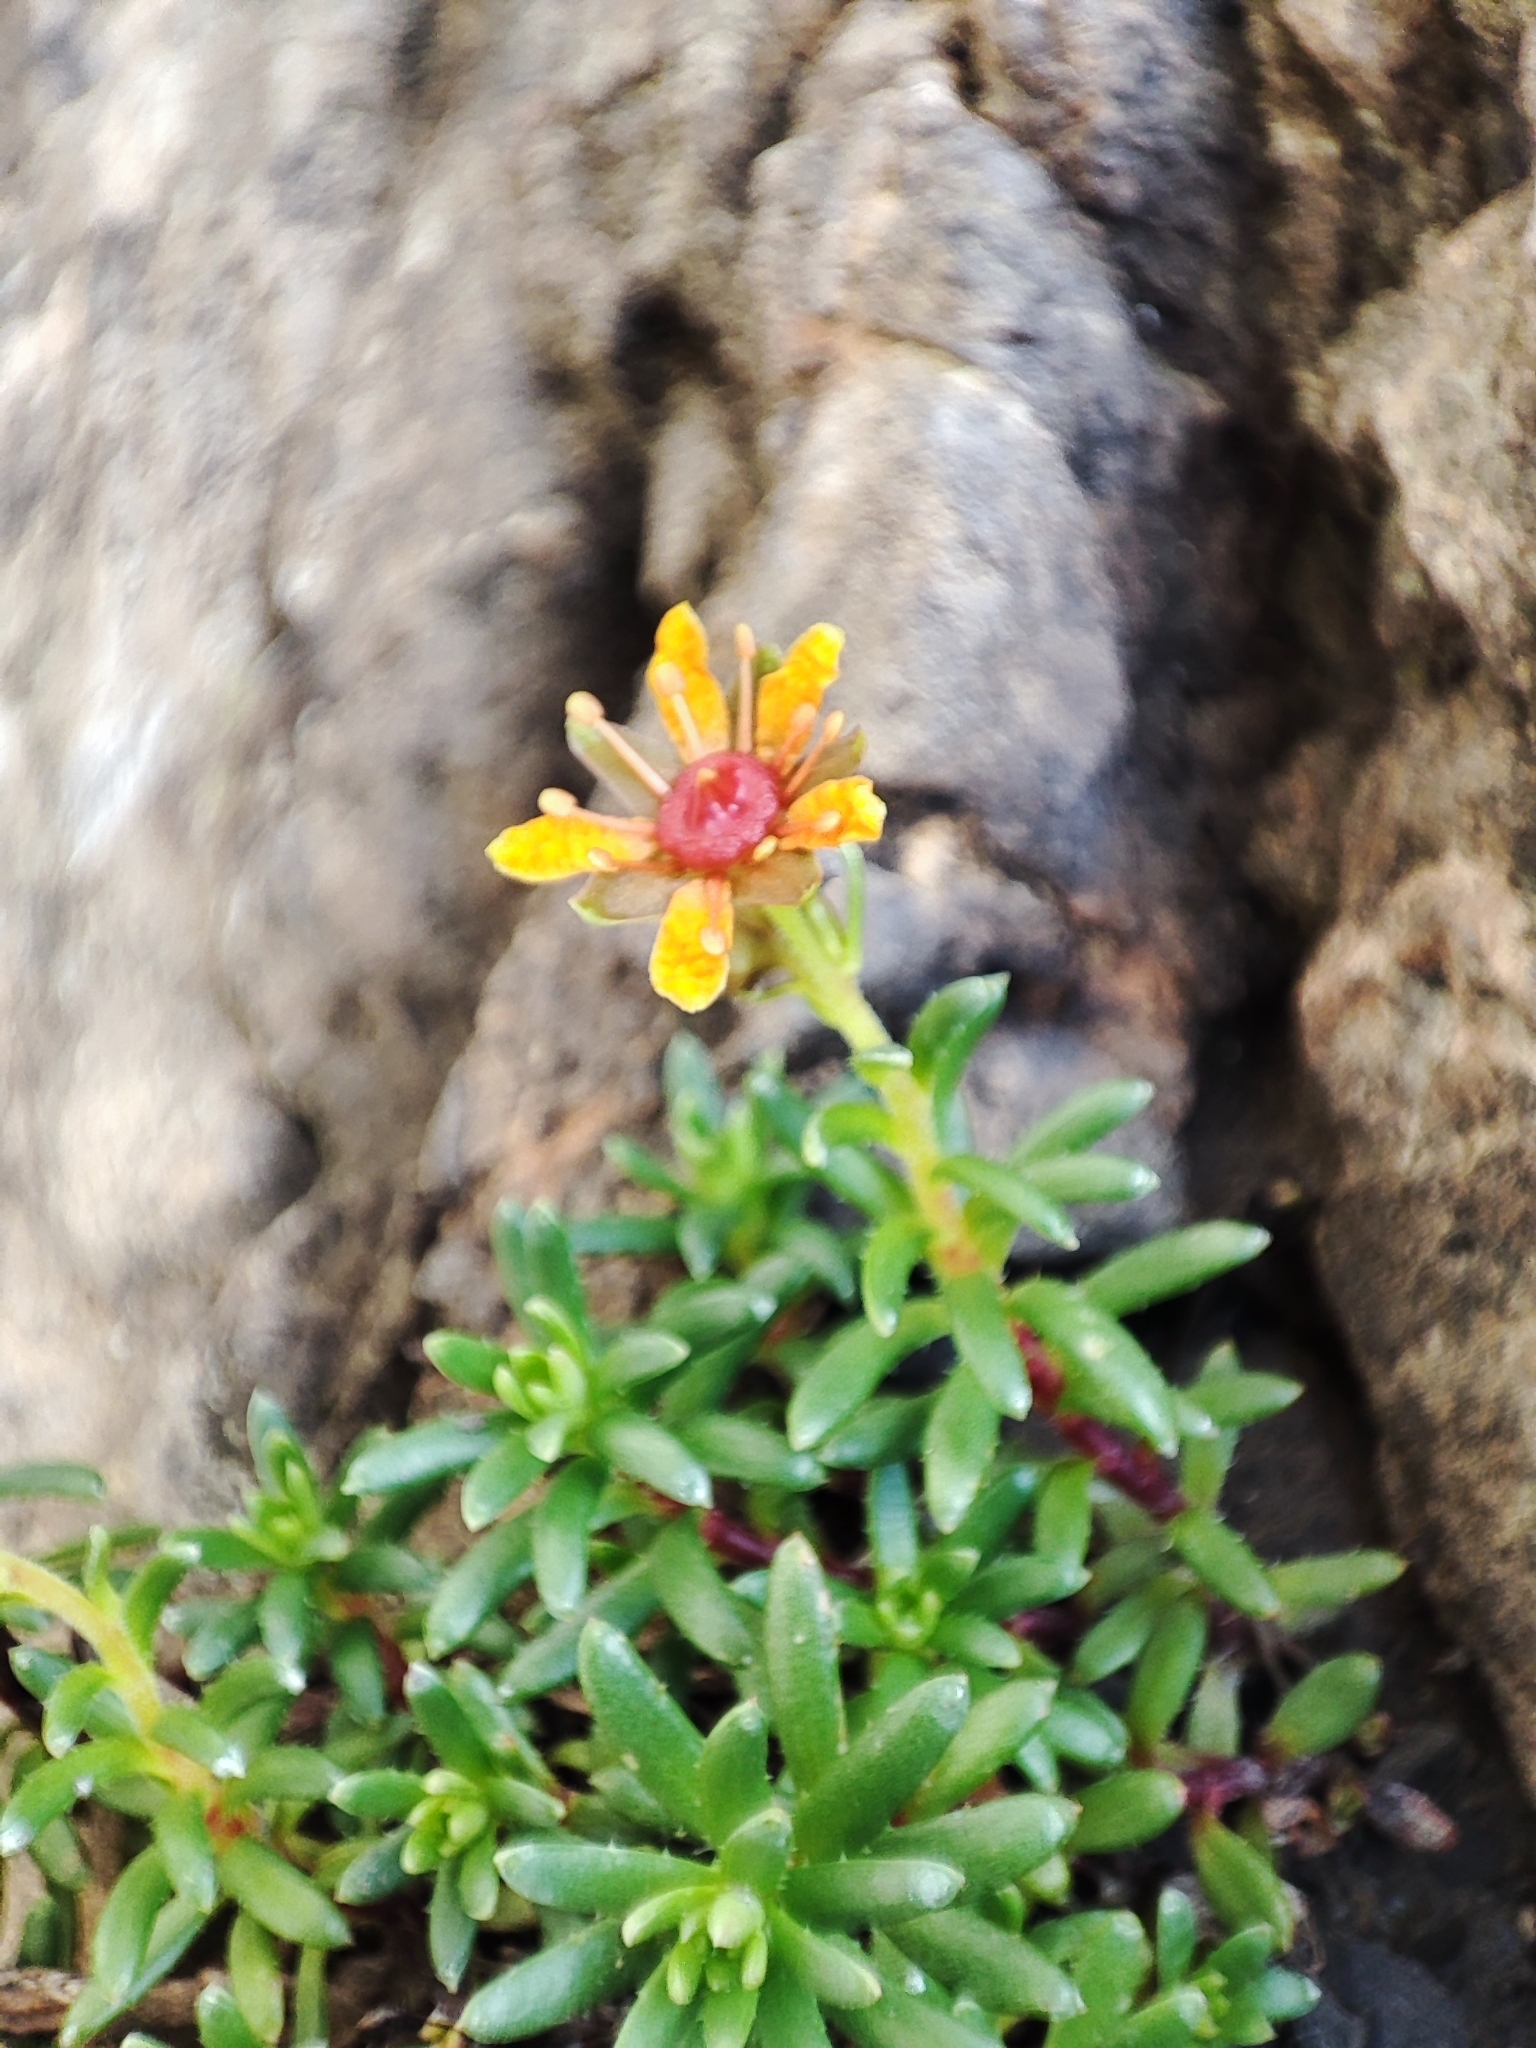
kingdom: Plantae
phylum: Tracheophyta
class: Magnoliopsida
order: Saxifragales
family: Saxifragaceae
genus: Saxifraga
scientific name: Saxifraga aizoides
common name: Yellow mountain saxifrage
